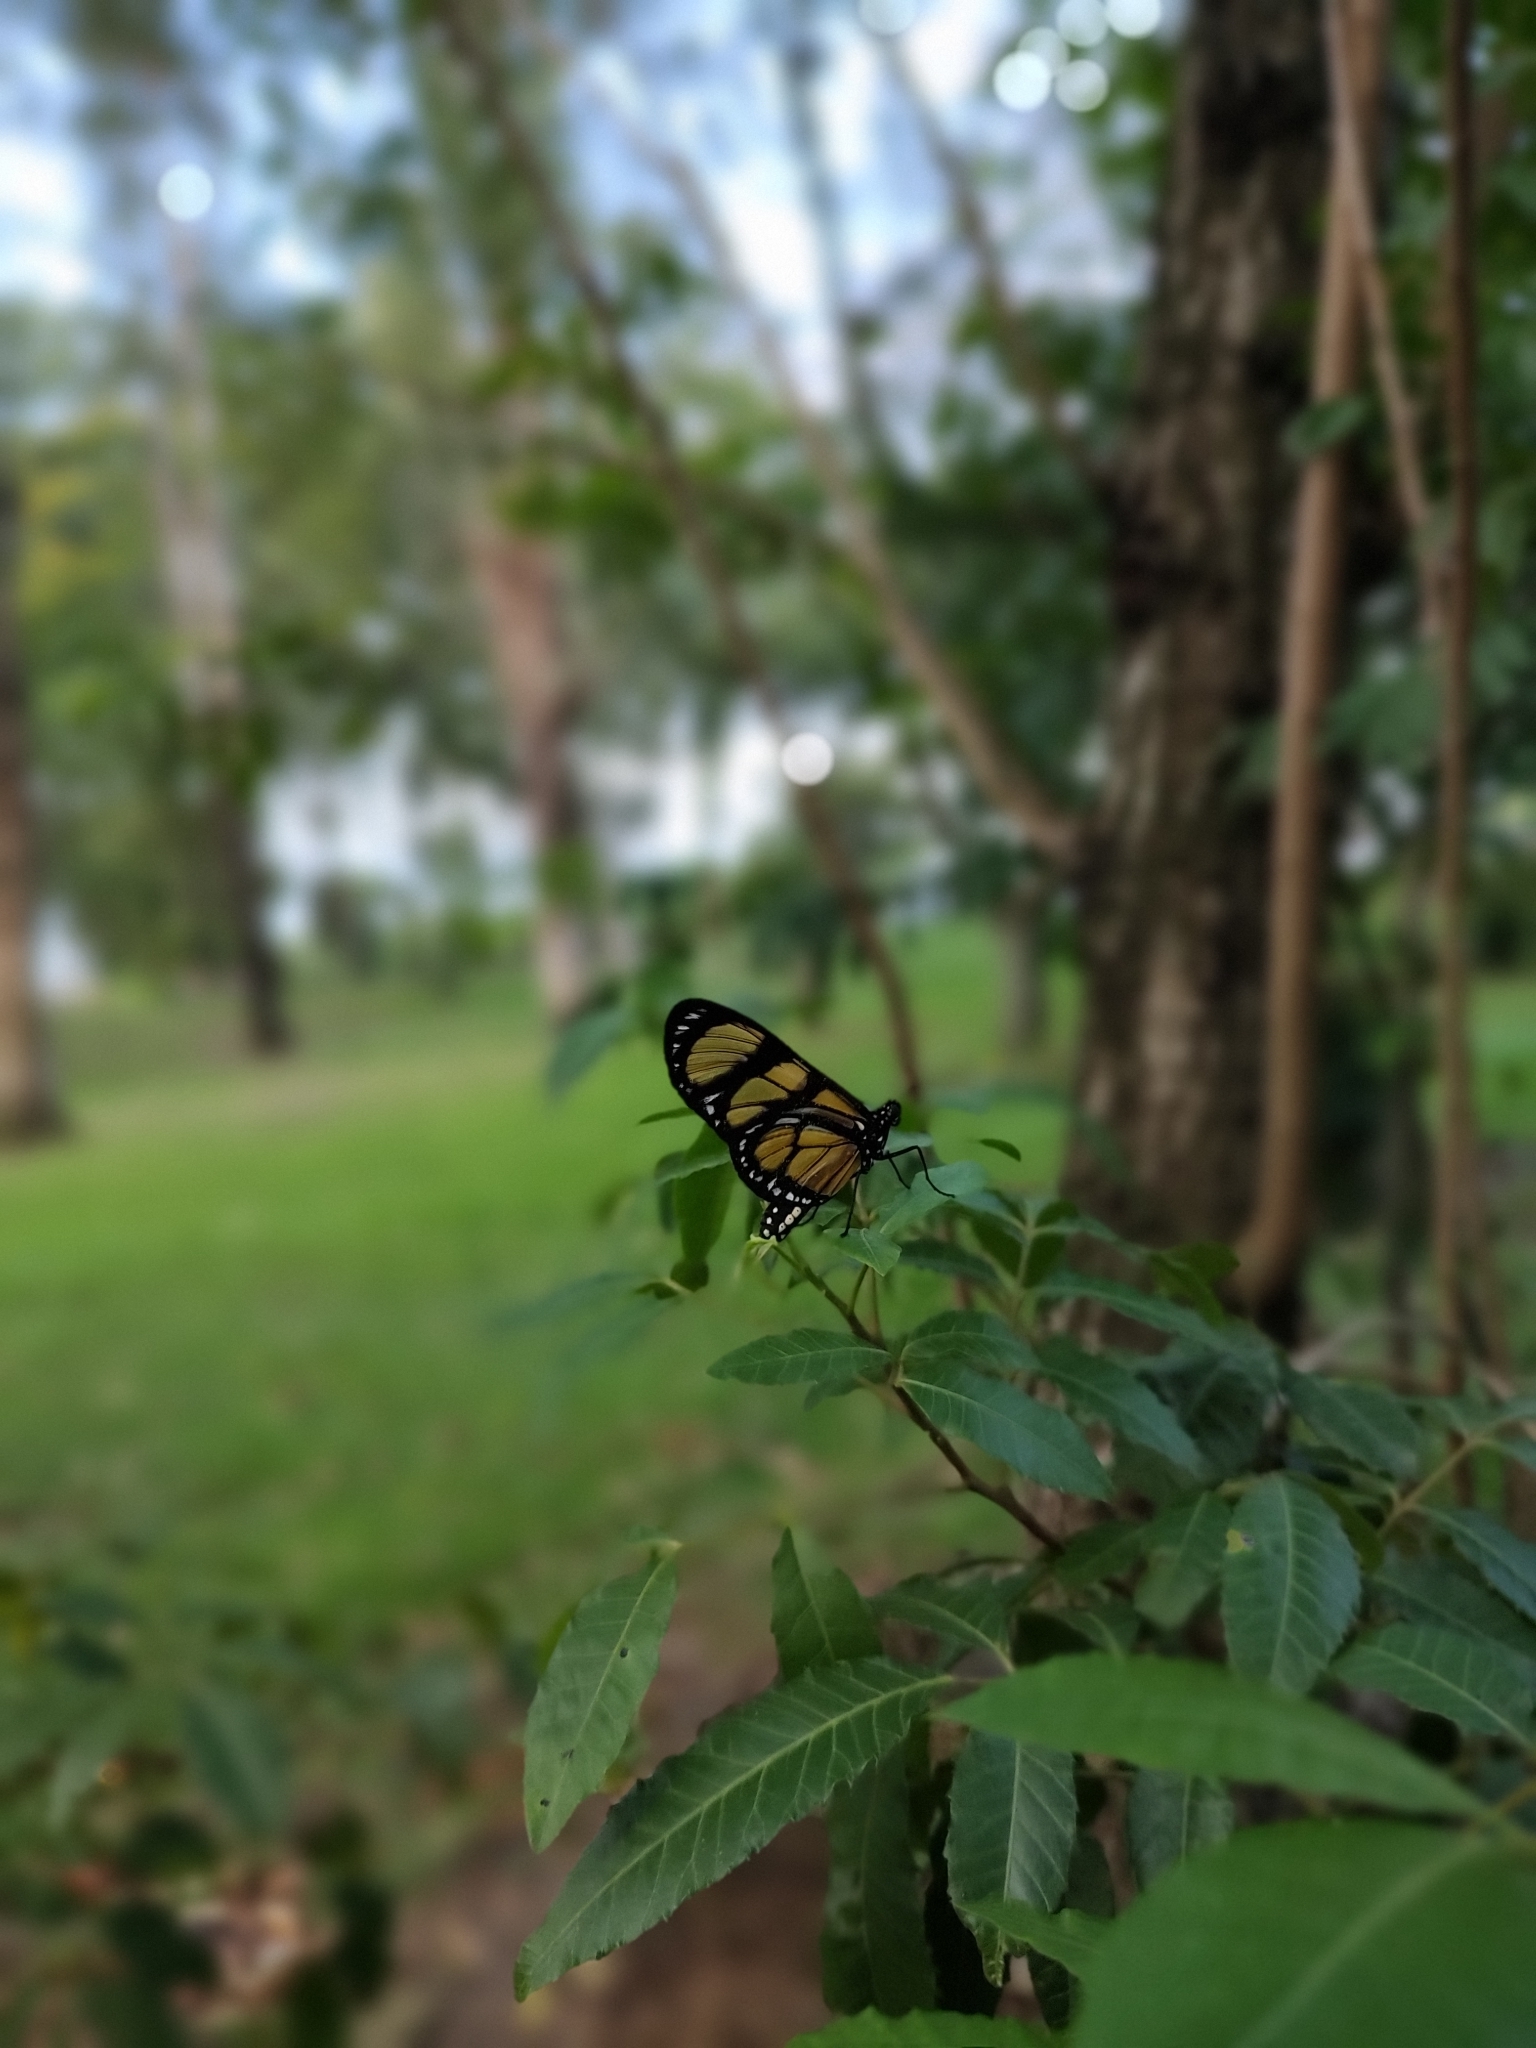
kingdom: Animalia
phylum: Arthropoda
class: Insecta
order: Lepidoptera
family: Nymphalidae
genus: Methona
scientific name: Methona themisto
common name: Themisto amberwing
